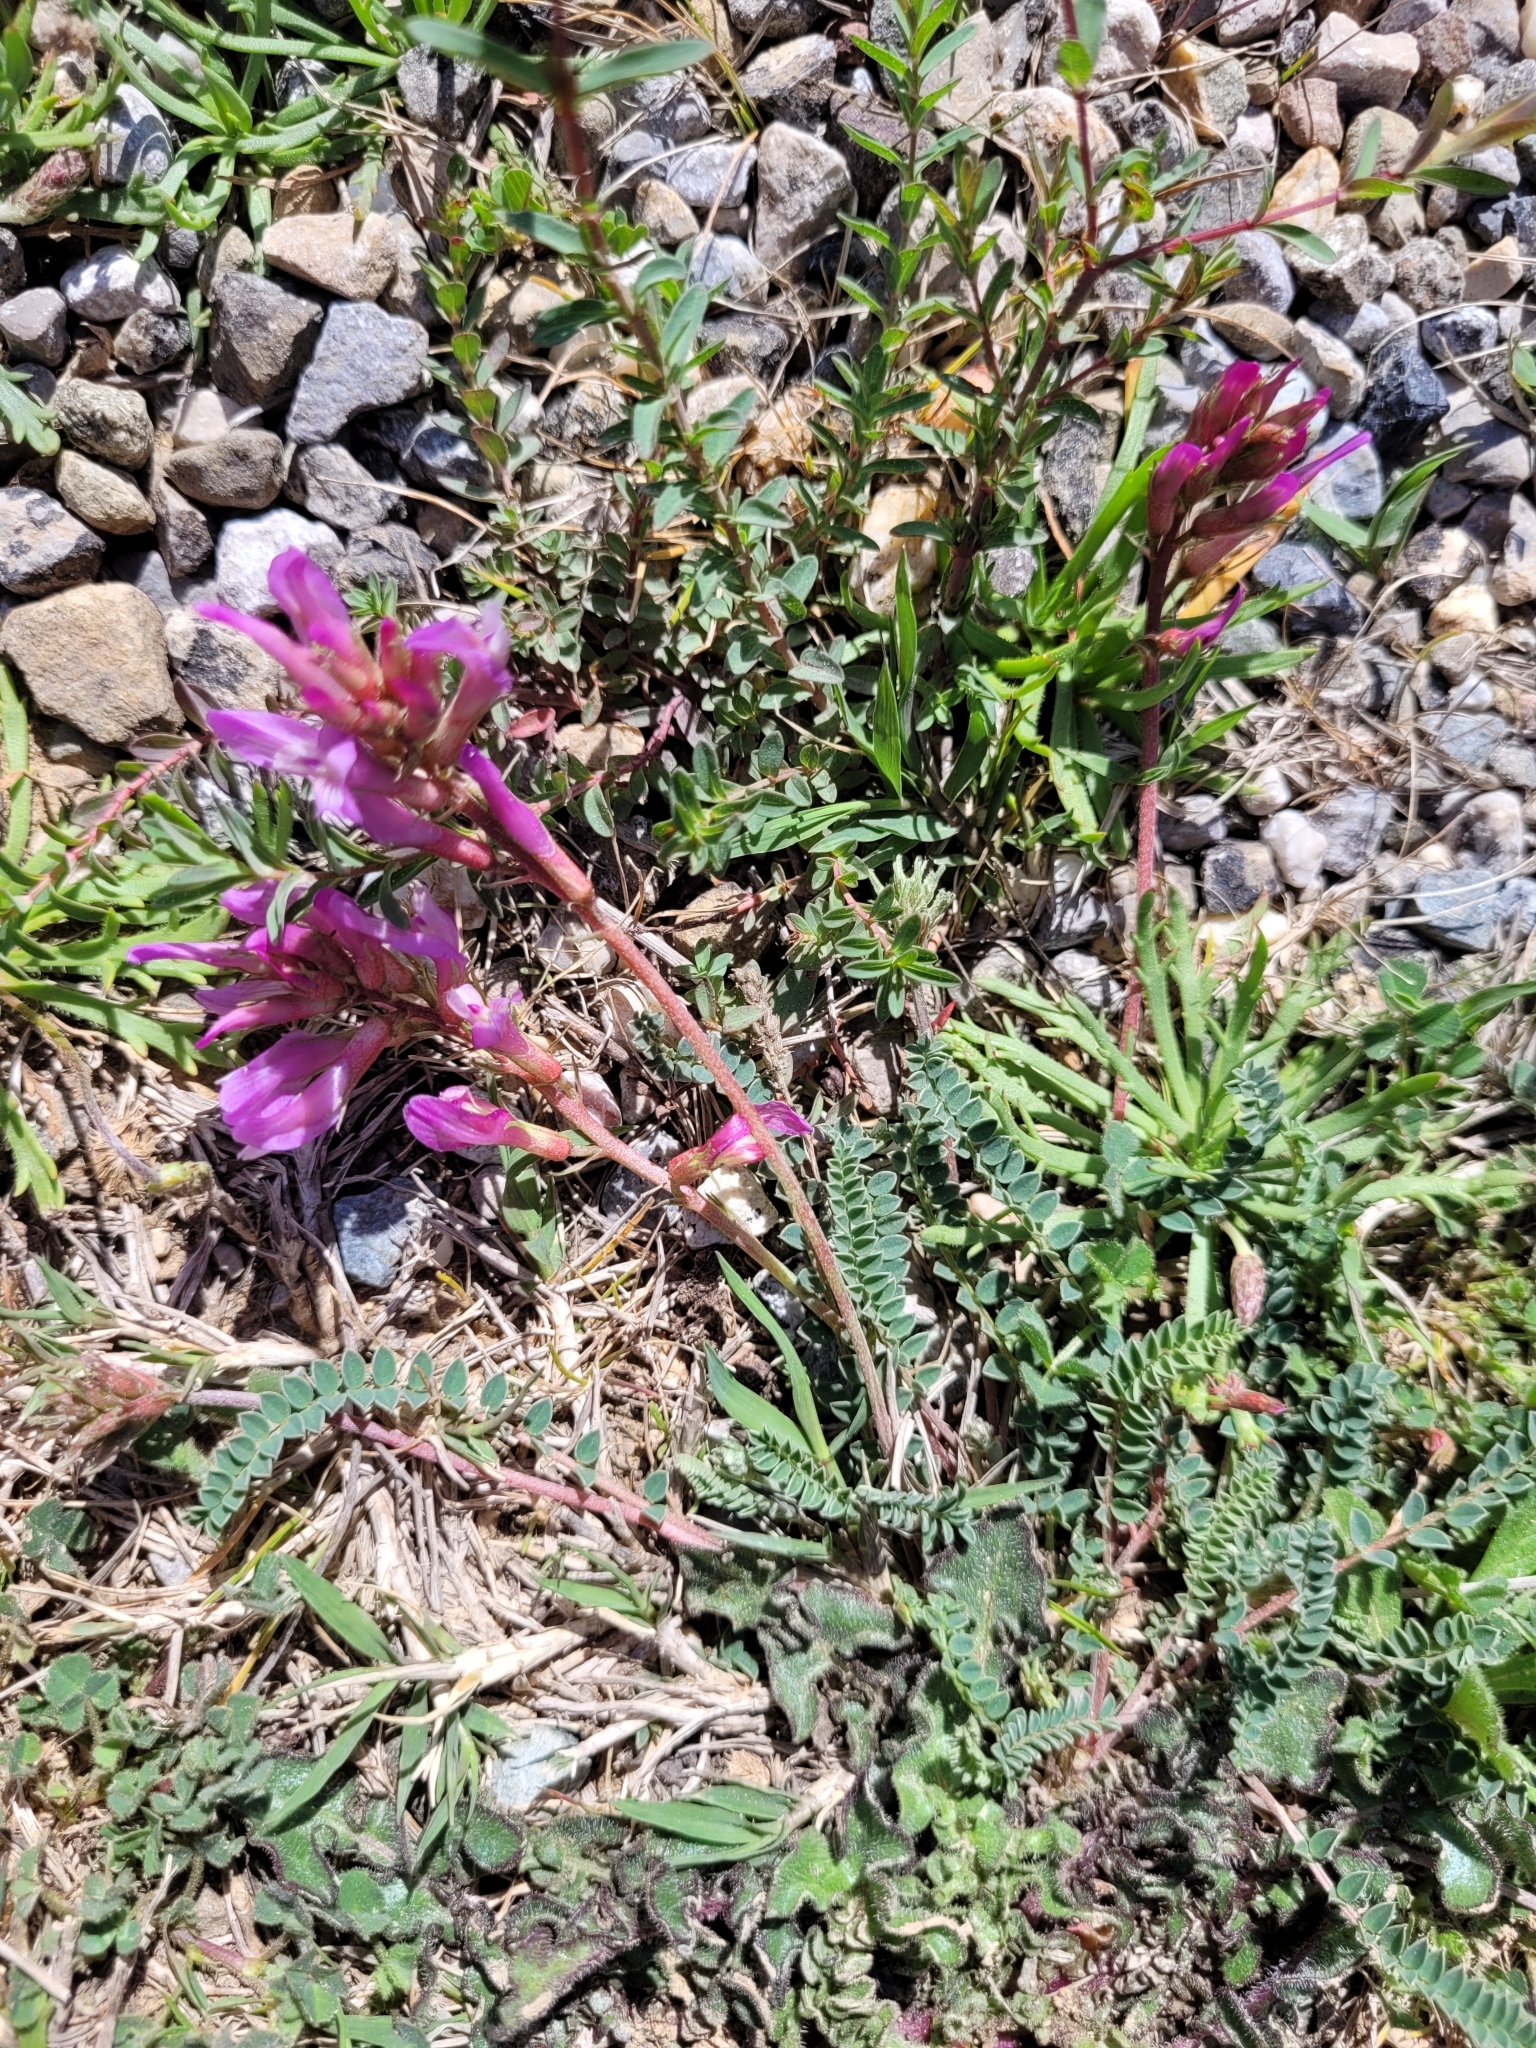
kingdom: Plantae
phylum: Tracheophyta
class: Magnoliopsida
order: Fabales
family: Fabaceae
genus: Astragalus
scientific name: Astragalus monspessulanus
